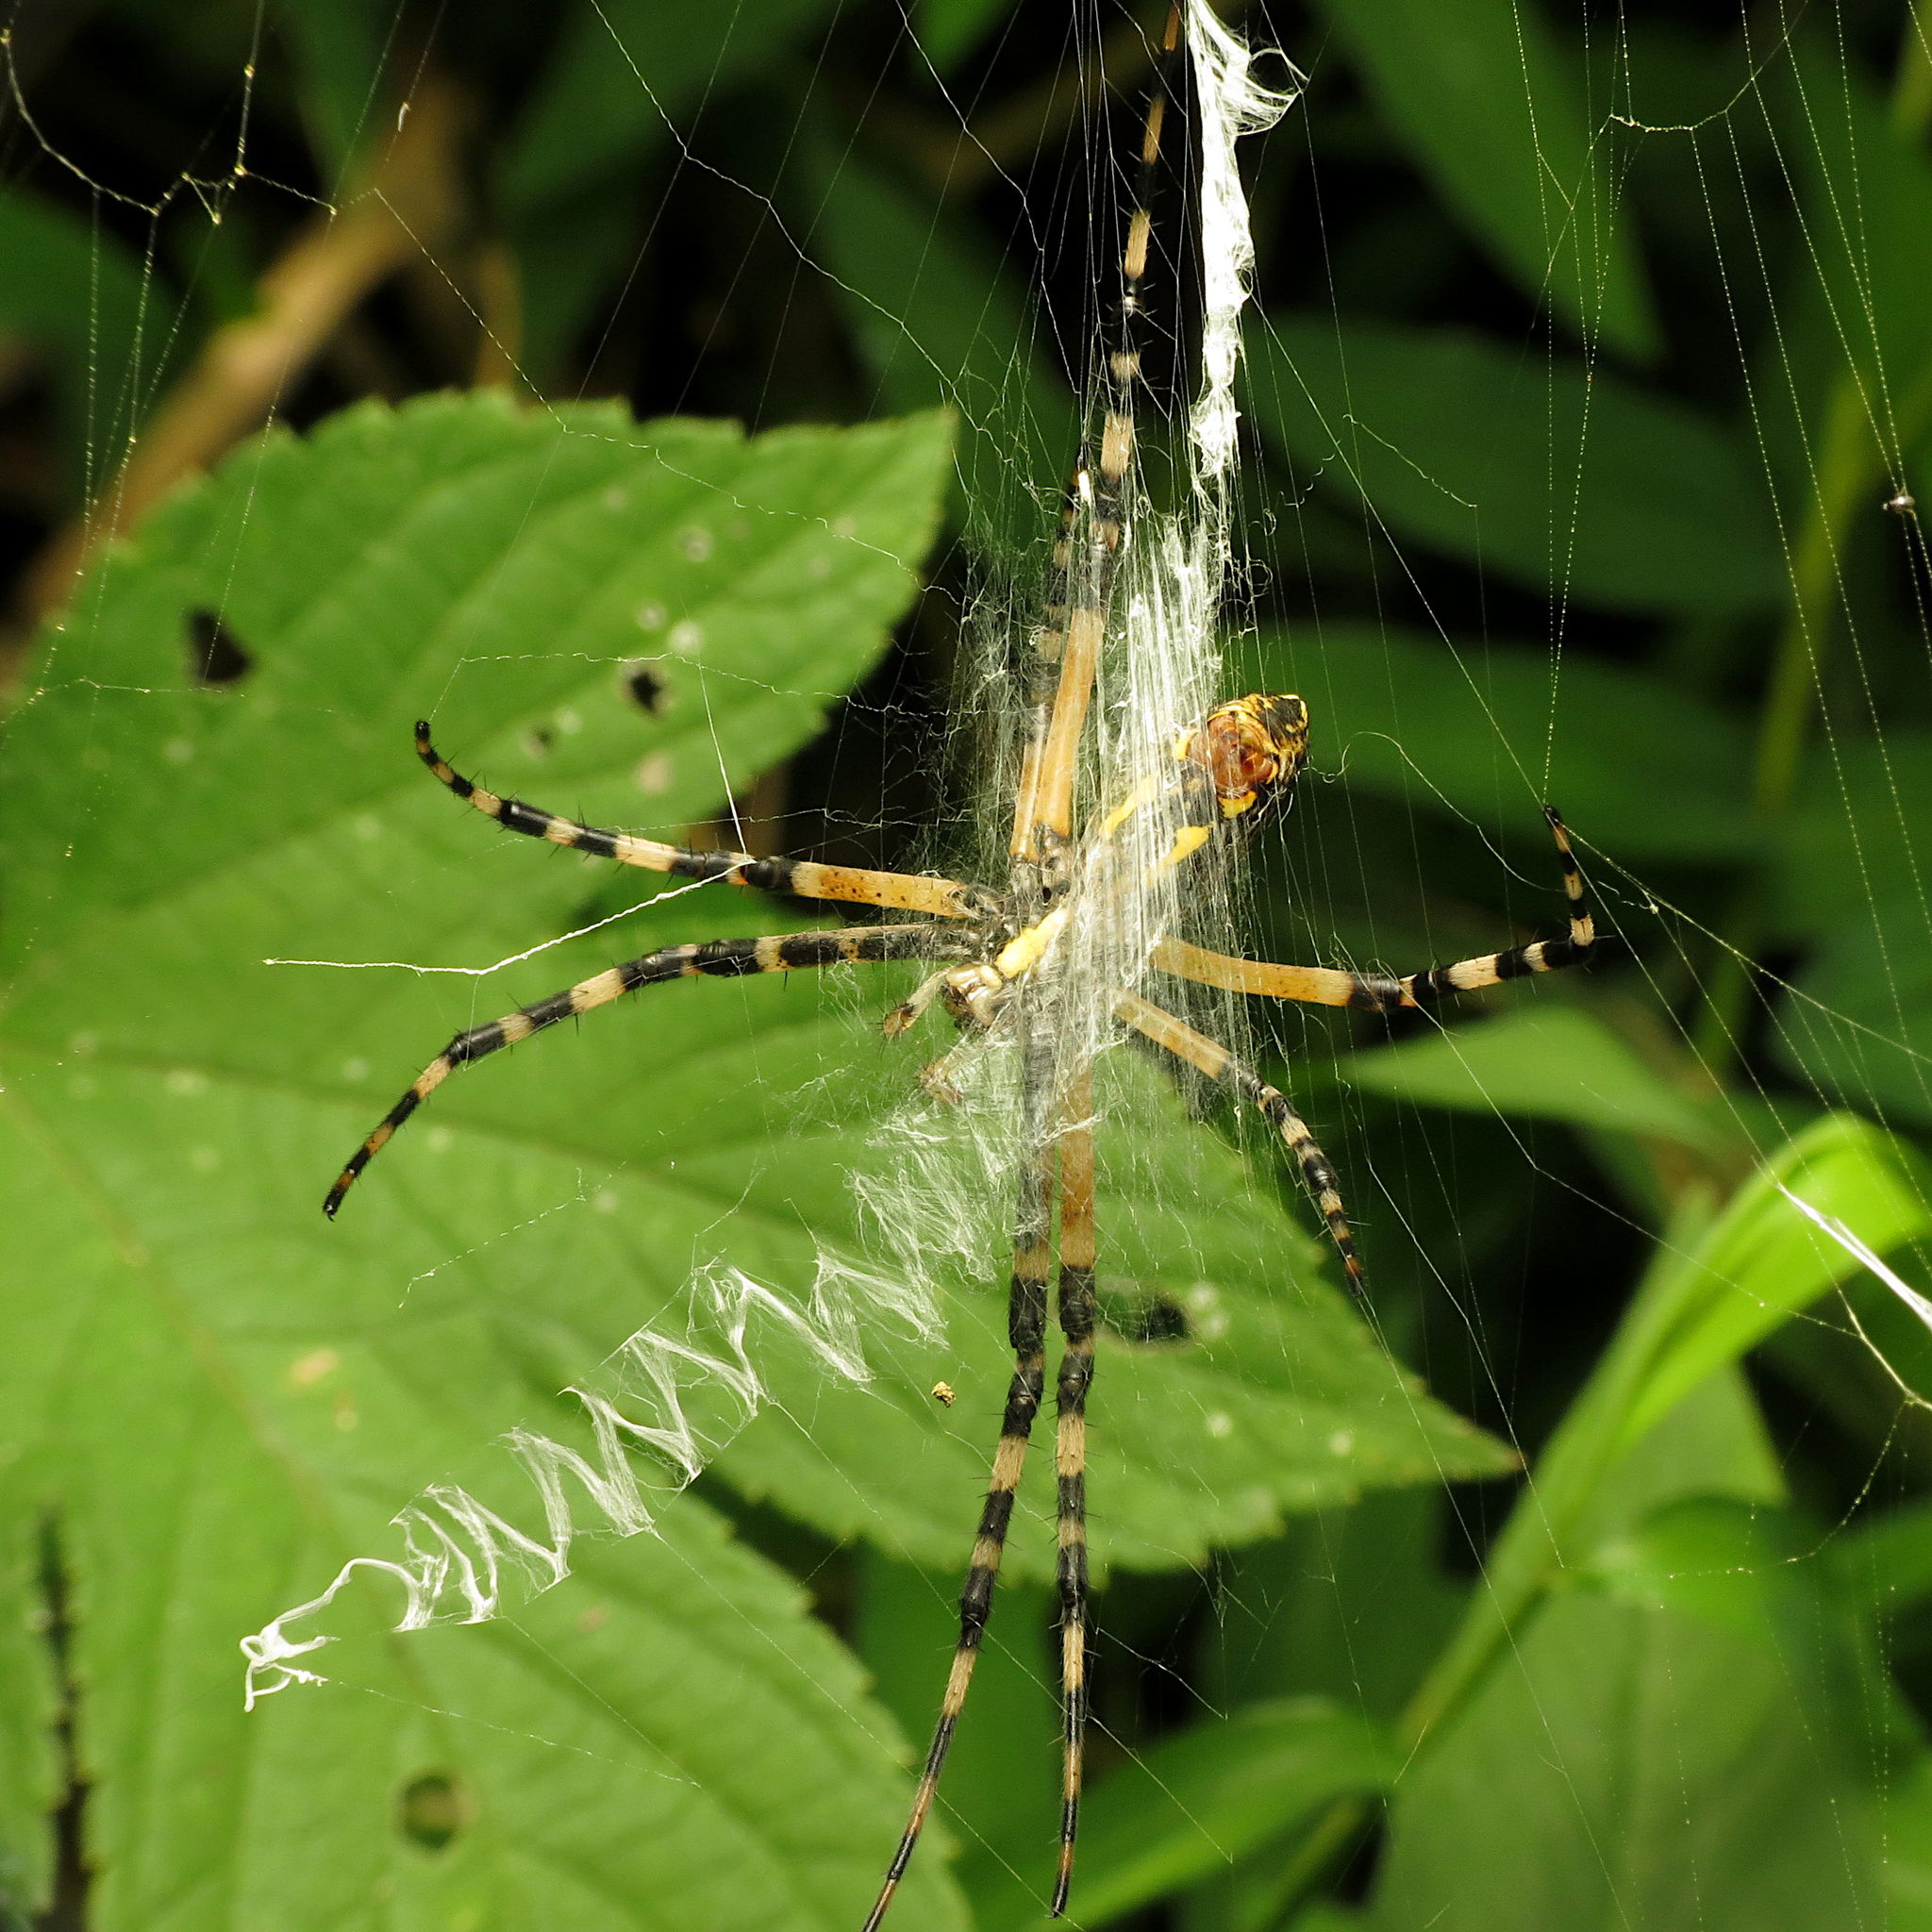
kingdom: Animalia
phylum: Arthropoda
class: Arachnida
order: Araneae
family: Araneidae
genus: Argiope
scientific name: Argiope aurantia
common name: Orb weavers
